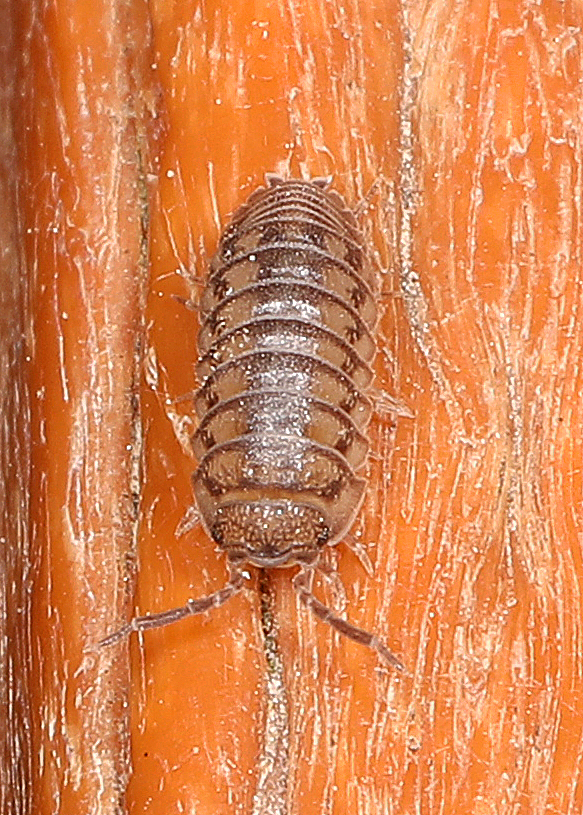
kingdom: Animalia
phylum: Arthropoda
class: Malacostraca
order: Isopoda
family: Armadillidiidae
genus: Armadillidium
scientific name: Armadillidium nasatum
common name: Isopod
